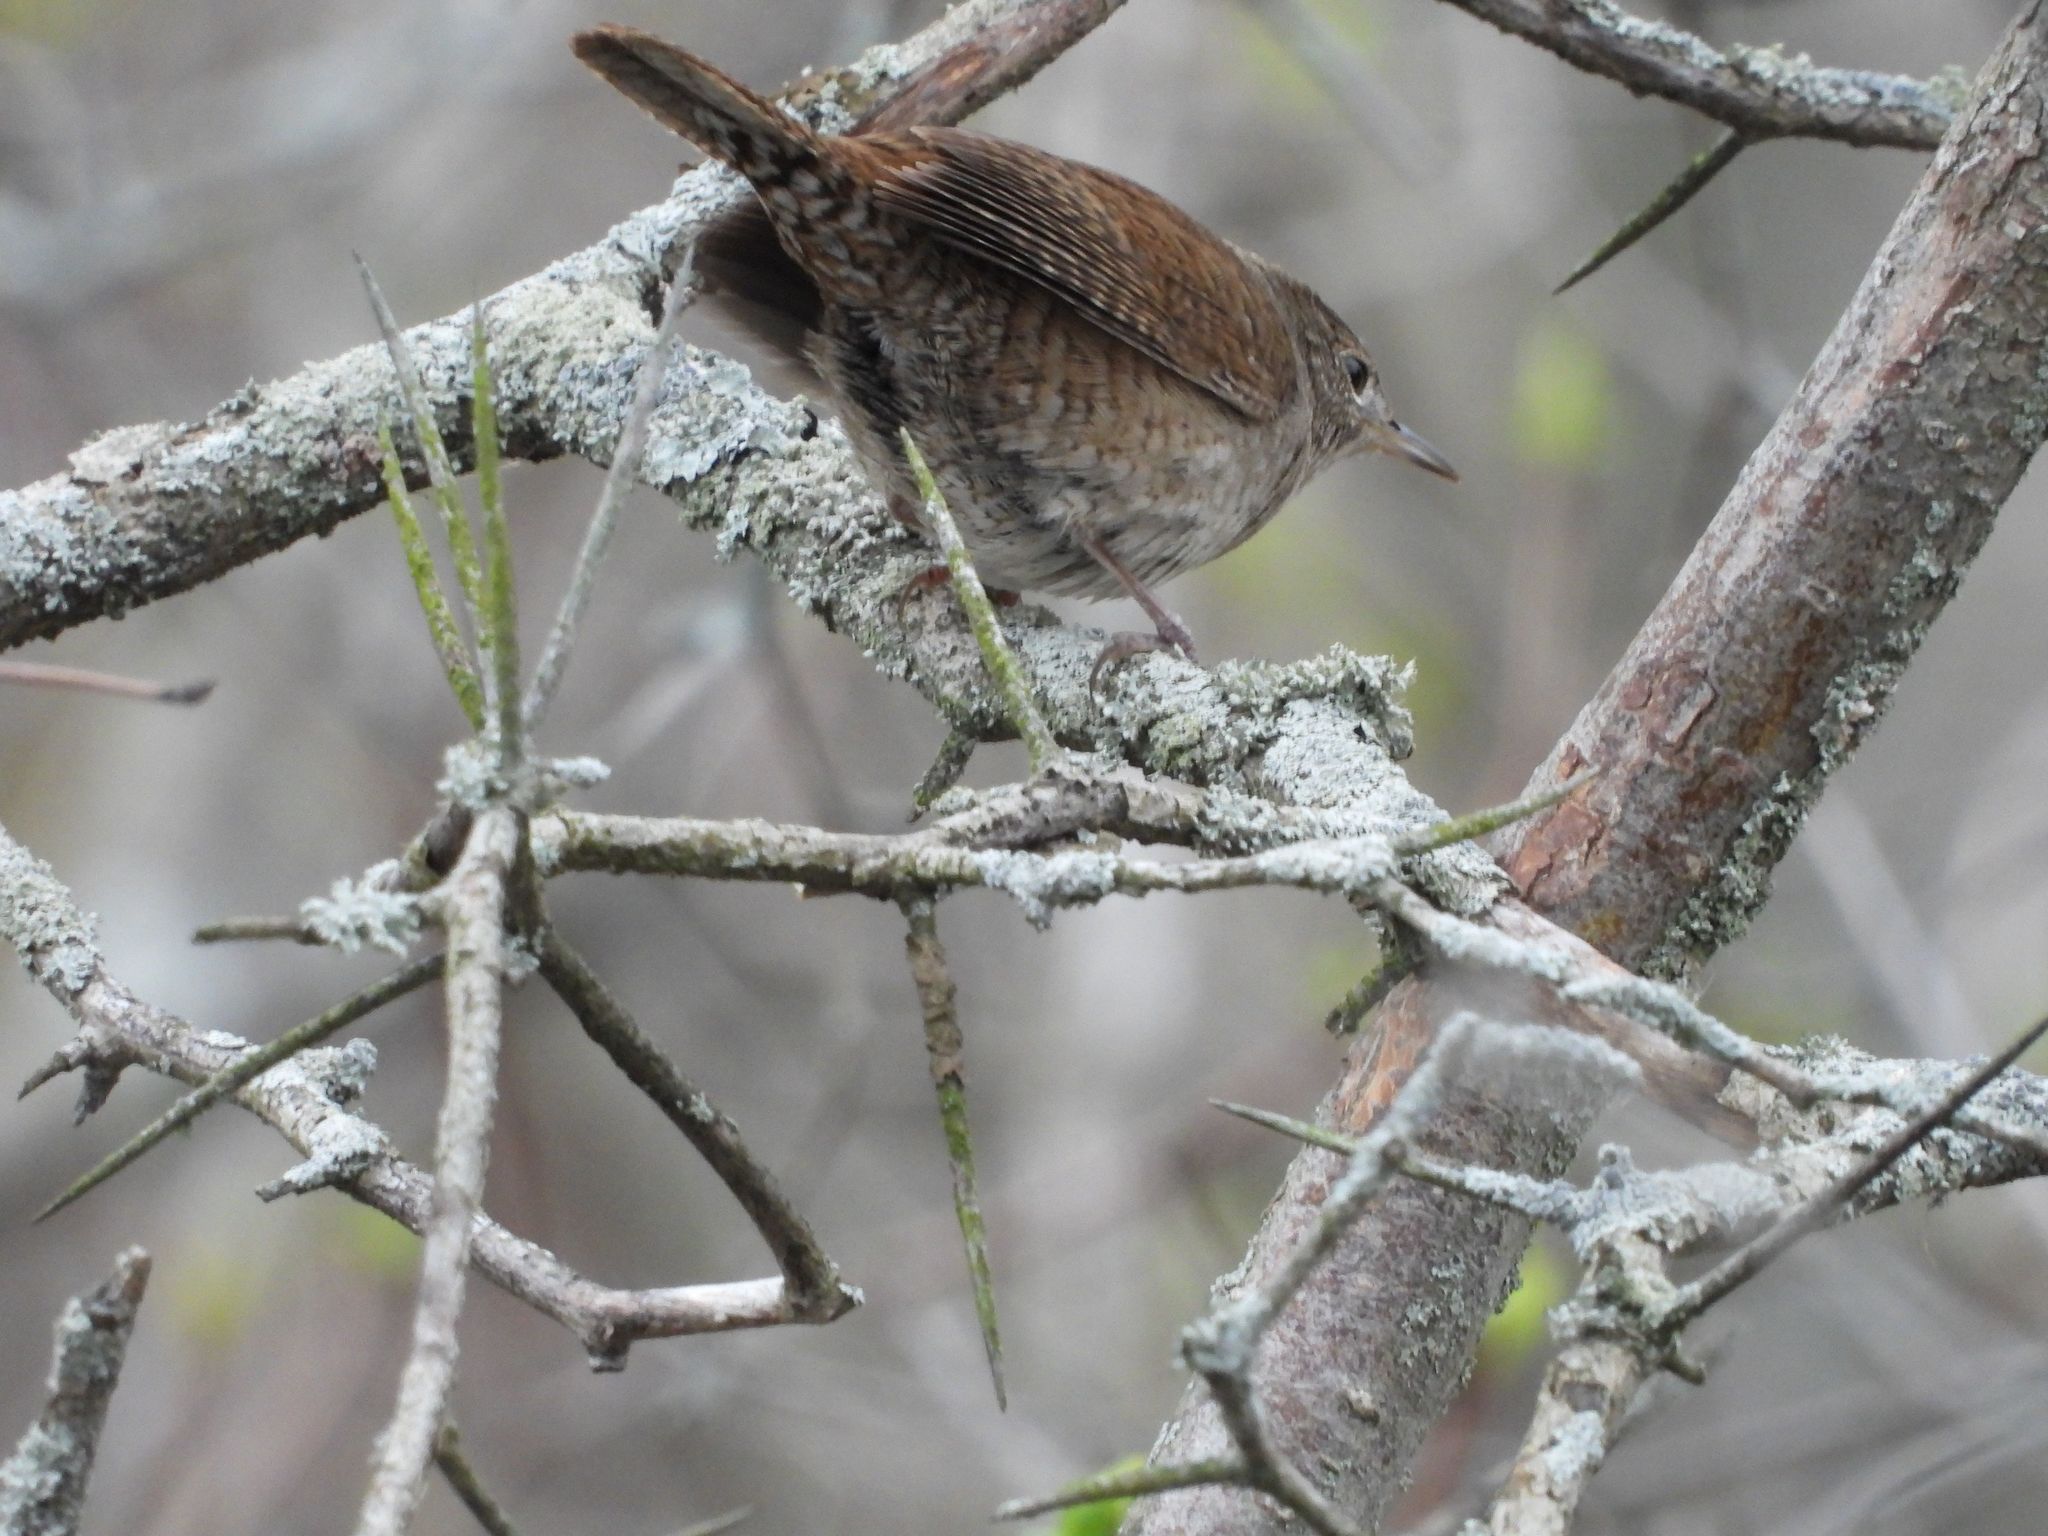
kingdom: Animalia
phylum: Chordata
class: Aves
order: Passeriformes
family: Troglodytidae
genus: Troglodytes
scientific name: Troglodytes aedon
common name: House wren
